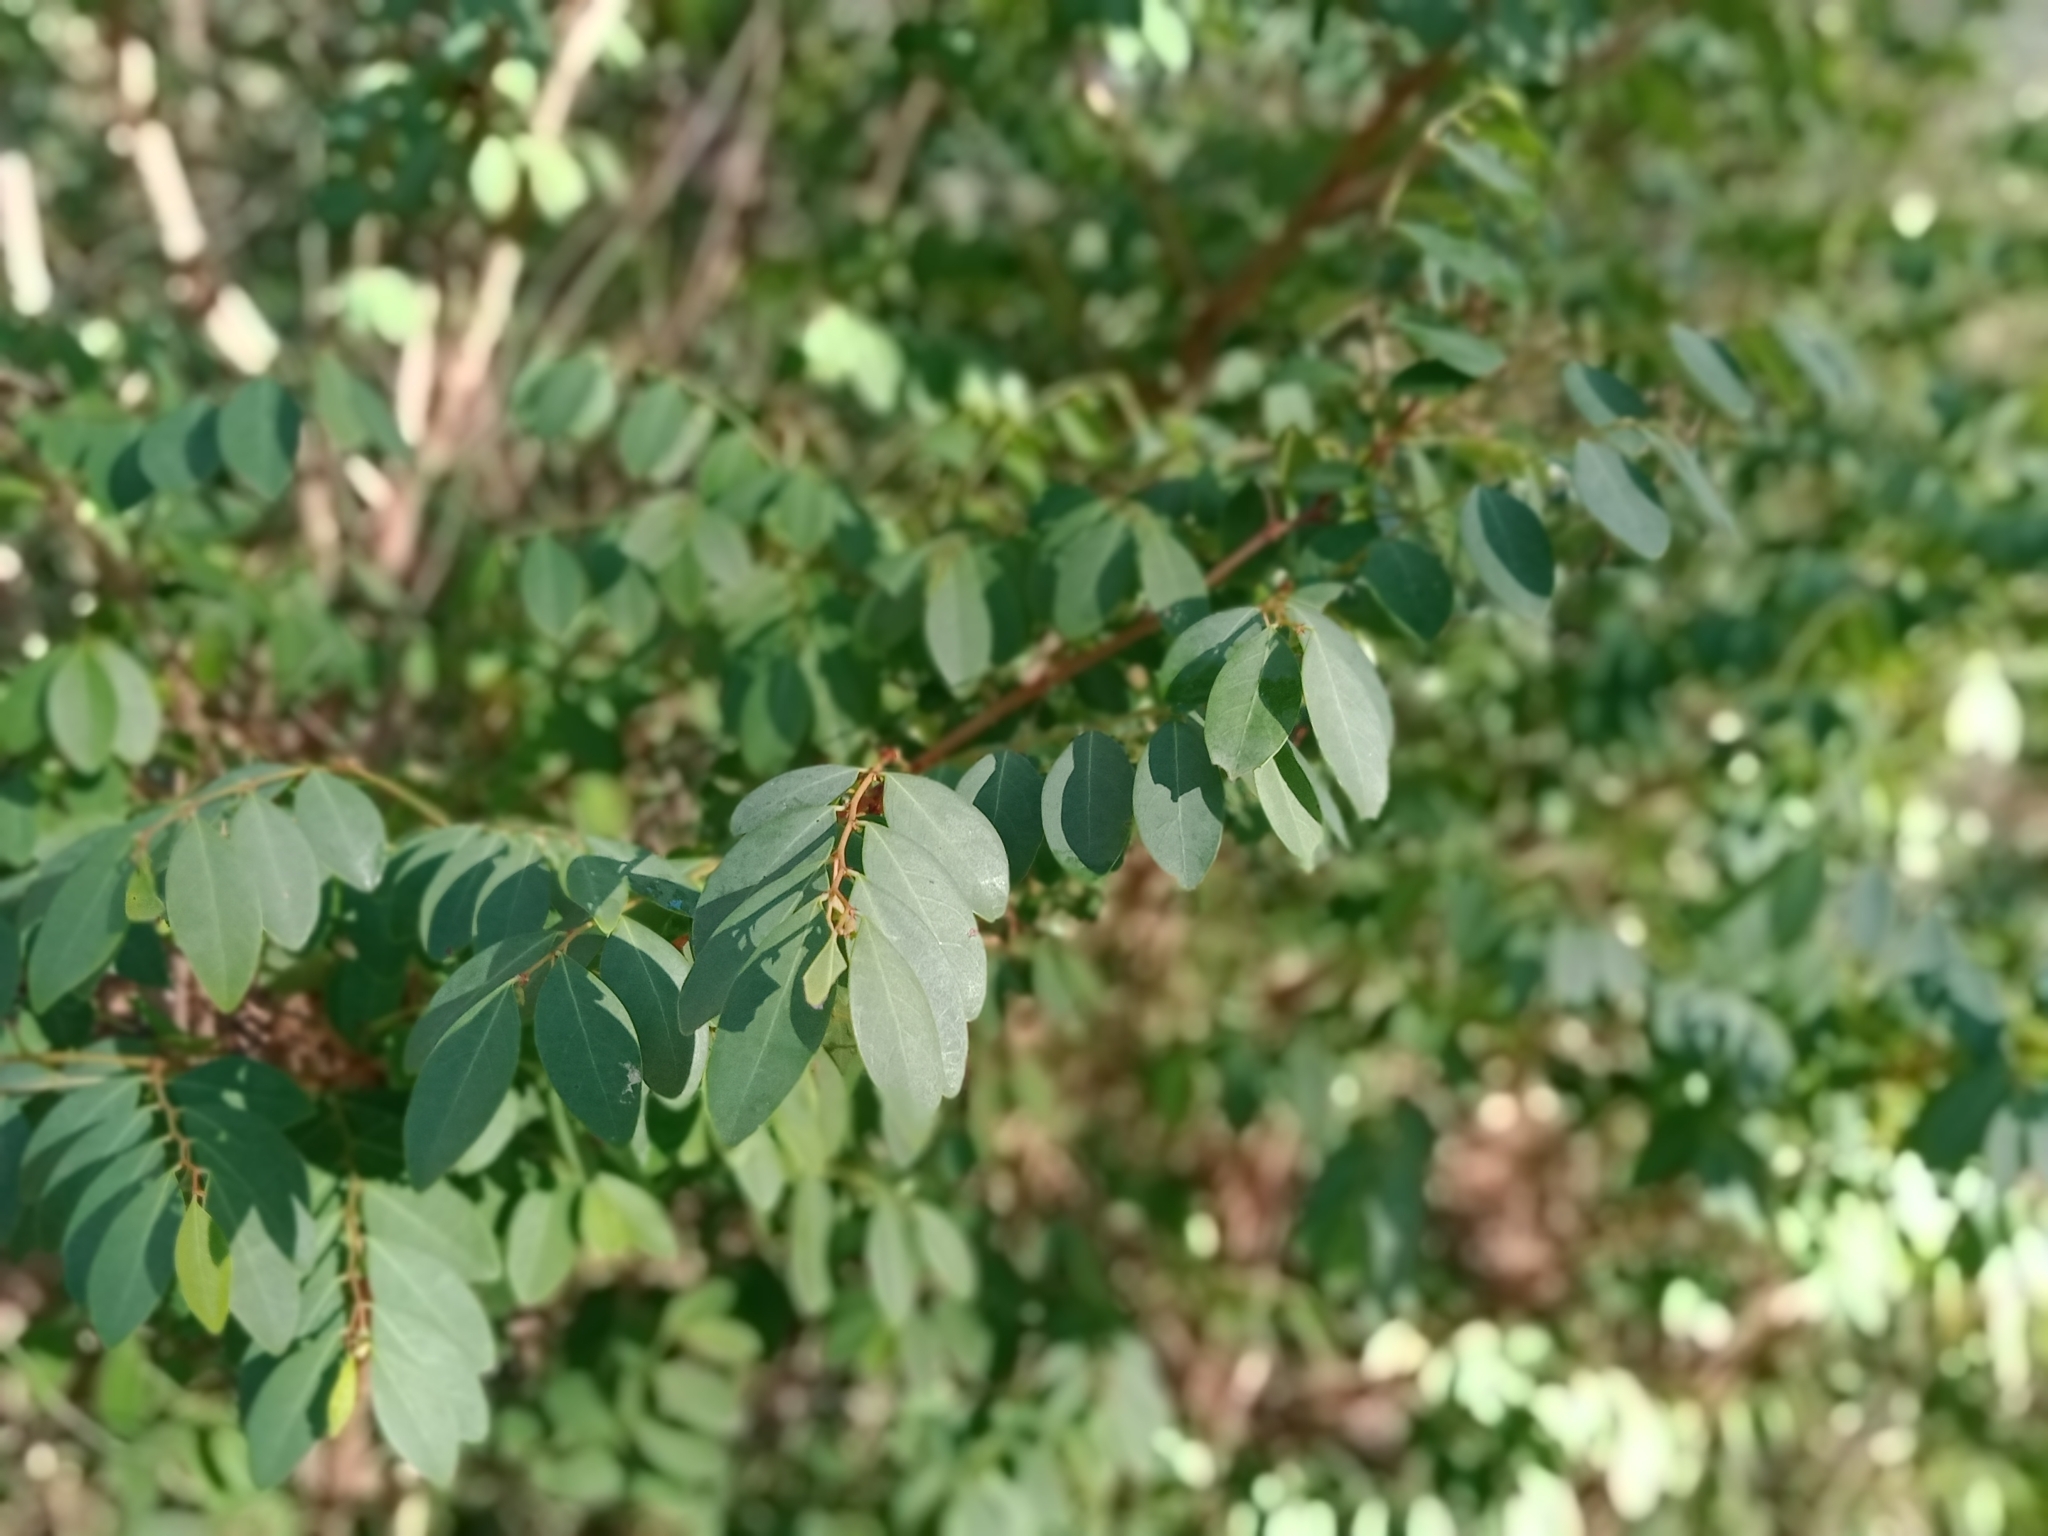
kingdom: Plantae
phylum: Tracheophyta
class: Magnoliopsida
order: Malpighiales
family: Phyllanthaceae
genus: Breynia
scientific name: Breynia oblongifolia
